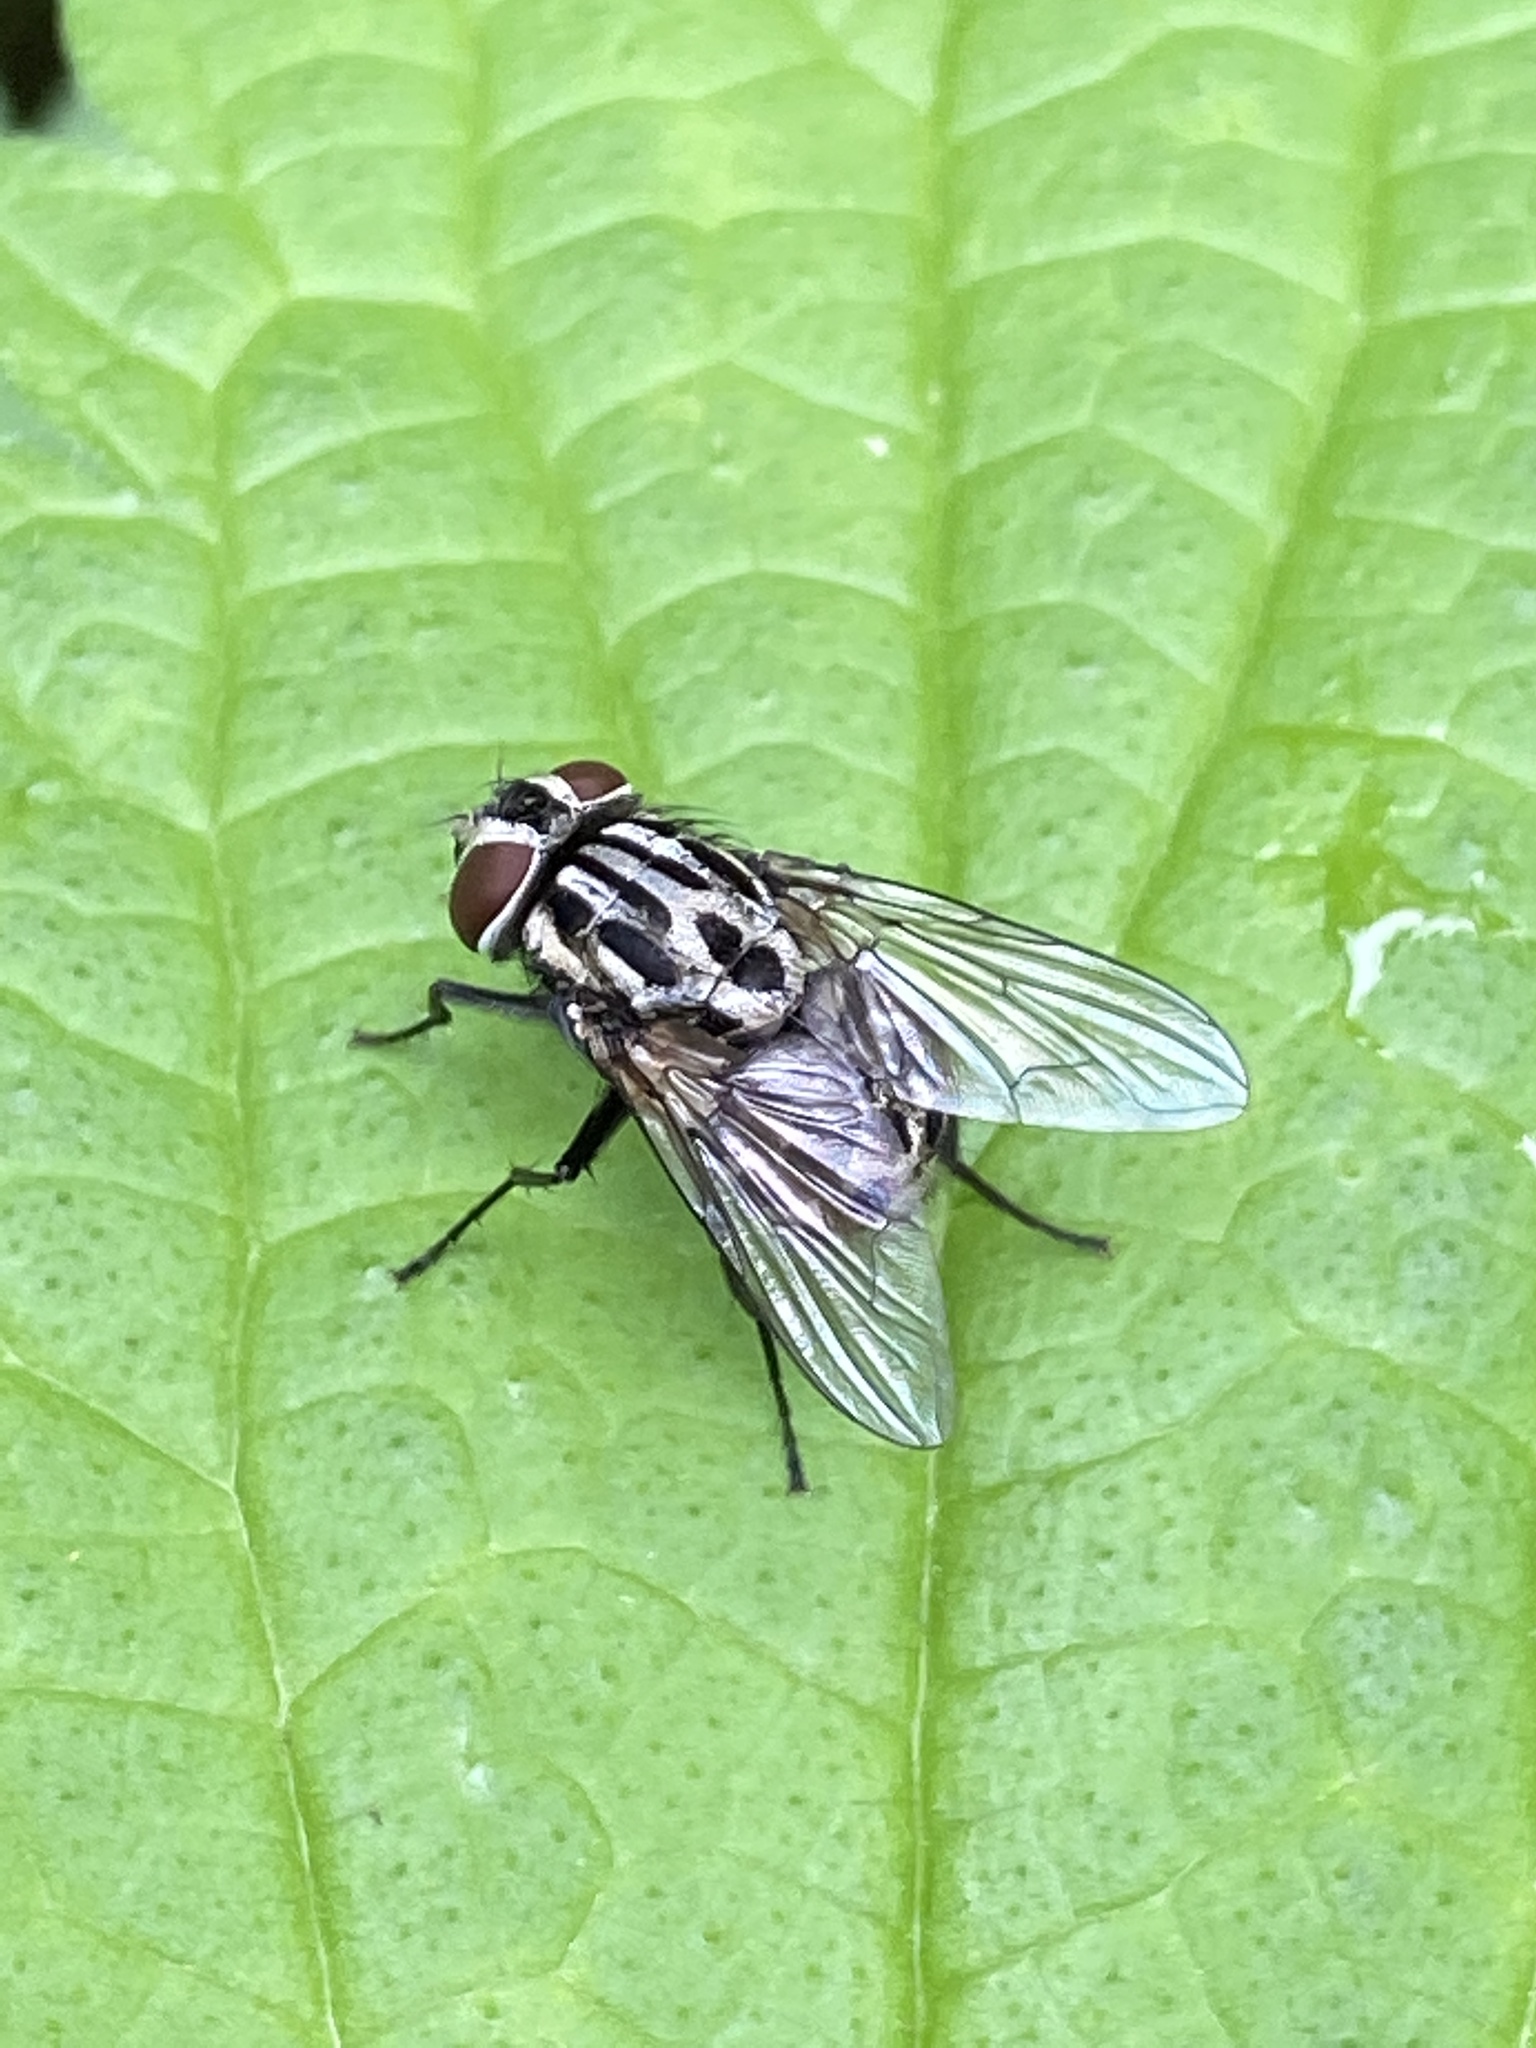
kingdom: Animalia
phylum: Arthropoda
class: Insecta
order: Diptera
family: Muscidae
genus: Graphomya
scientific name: Graphomya maculata
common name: Muscid fly
